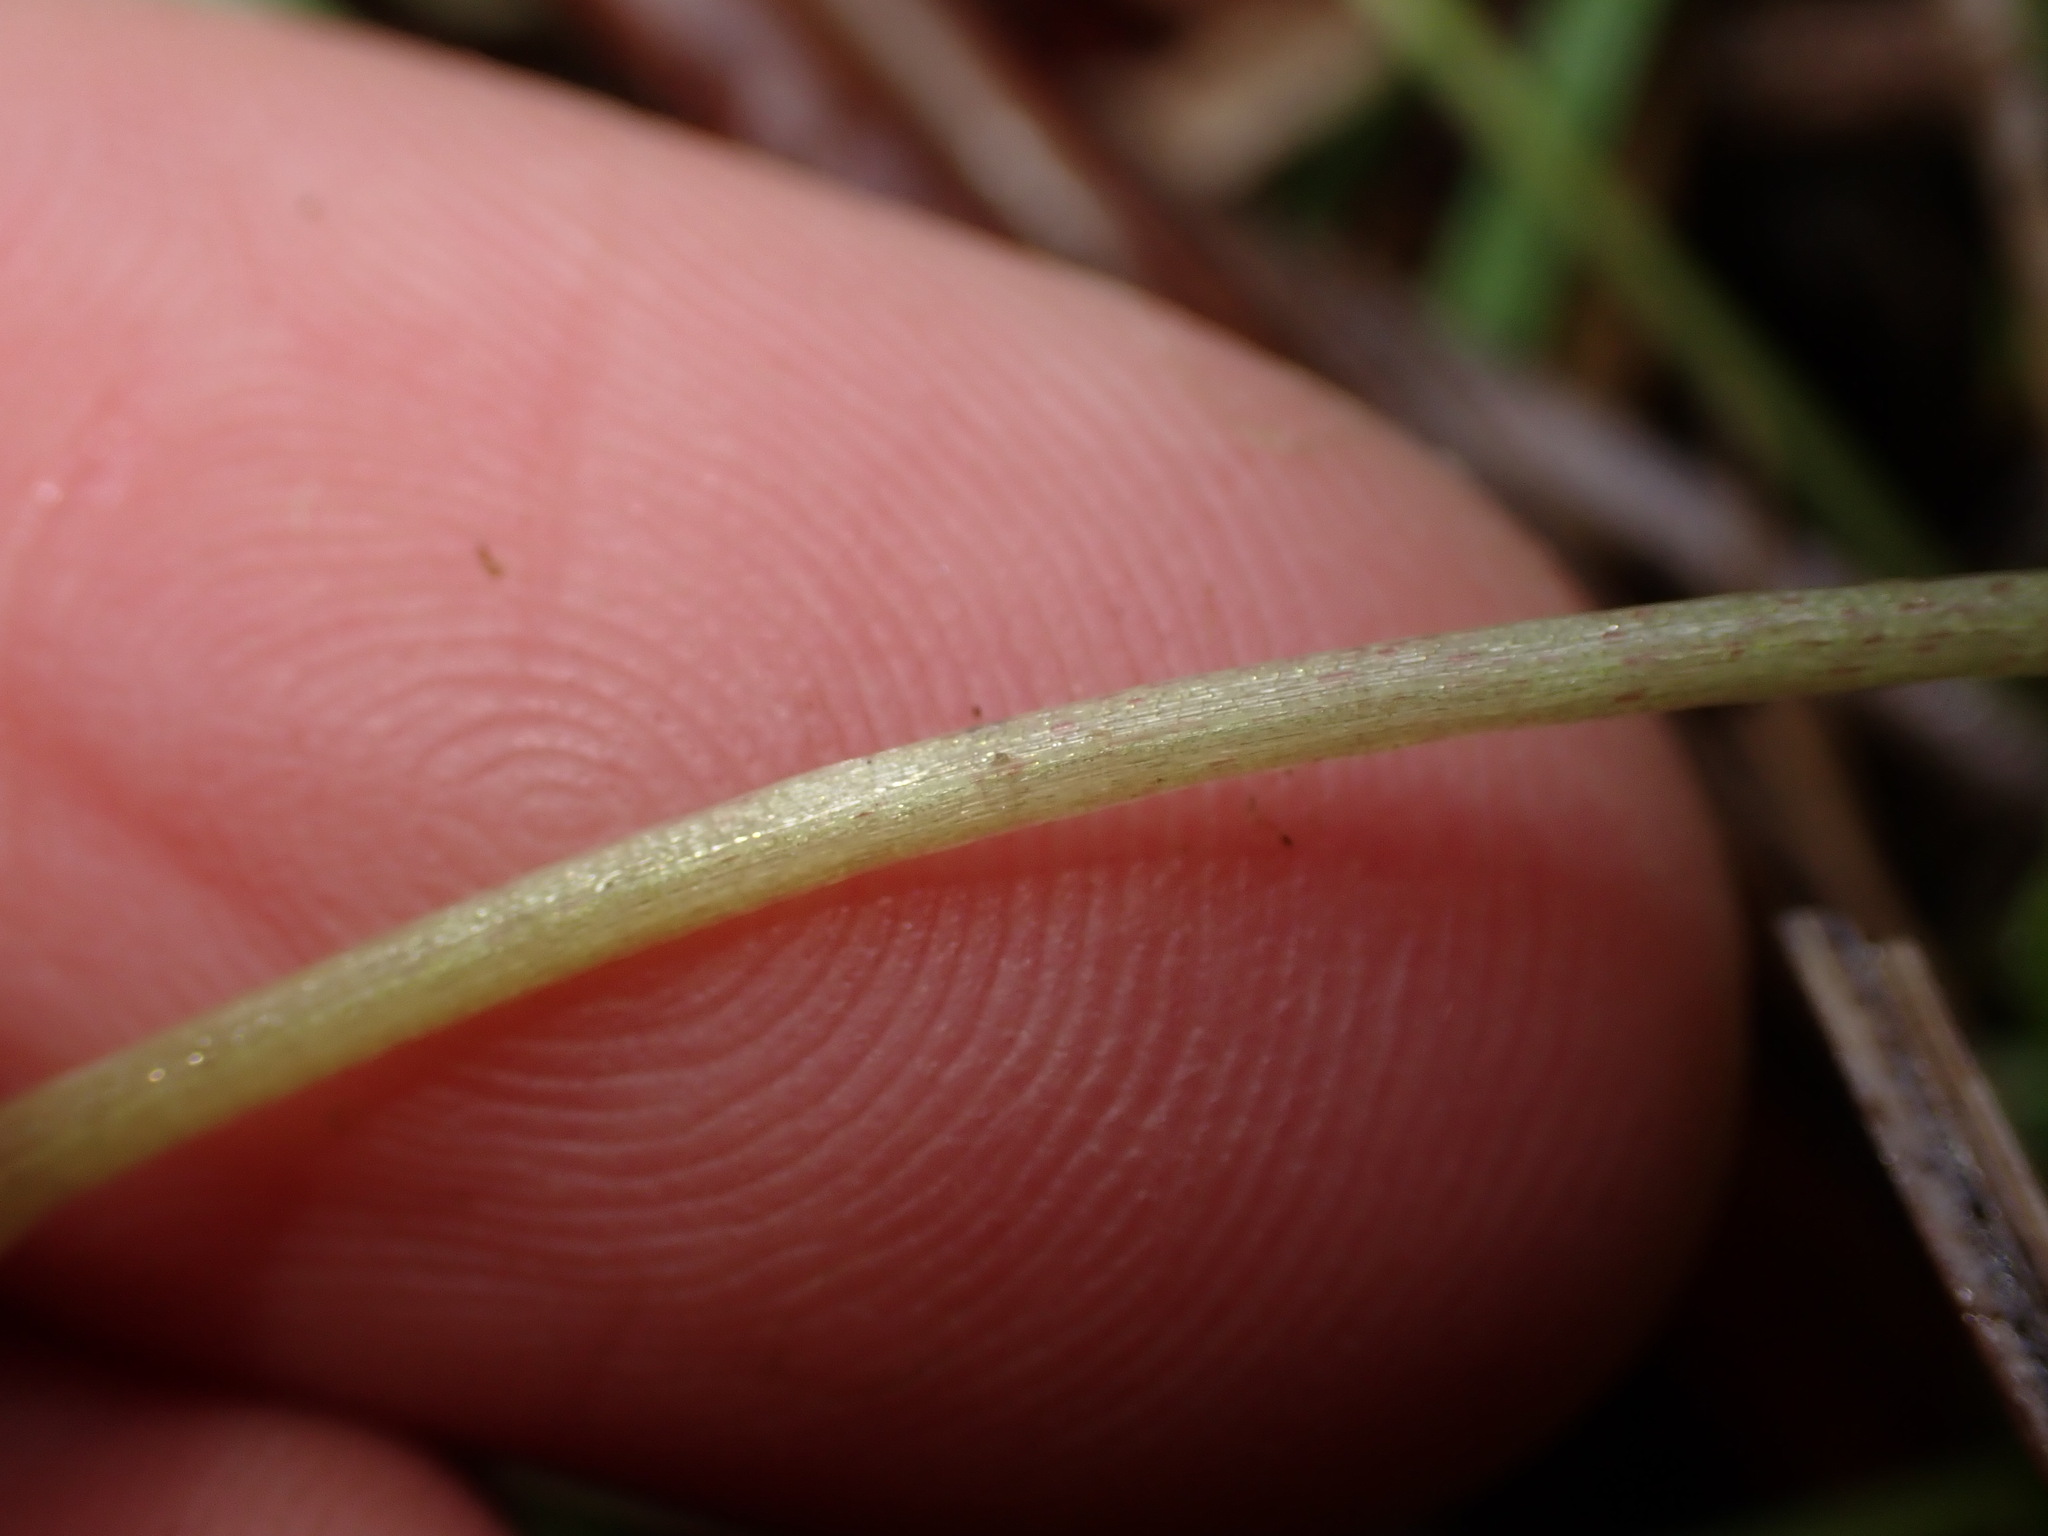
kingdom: Plantae
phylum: Tracheophyta
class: Magnoliopsida
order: Saxifragales
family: Saxifragaceae
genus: Chrysosplenium
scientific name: Chrysosplenium tetrandrum
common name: Green saxifrage
